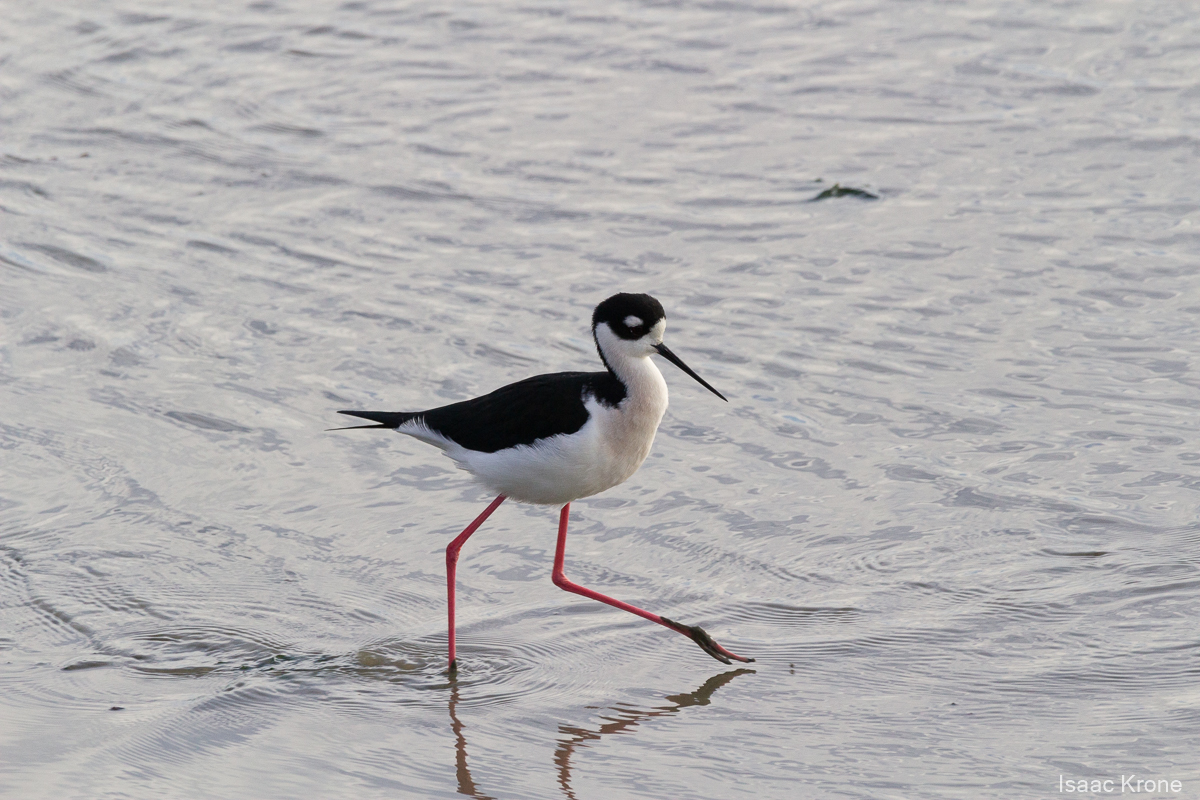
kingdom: Animalia
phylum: Chordata
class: Aves
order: Charadriiformes
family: Recurvirostridae
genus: Himantopus
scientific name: Himantopus mexicanus
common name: Black-necked stilt
